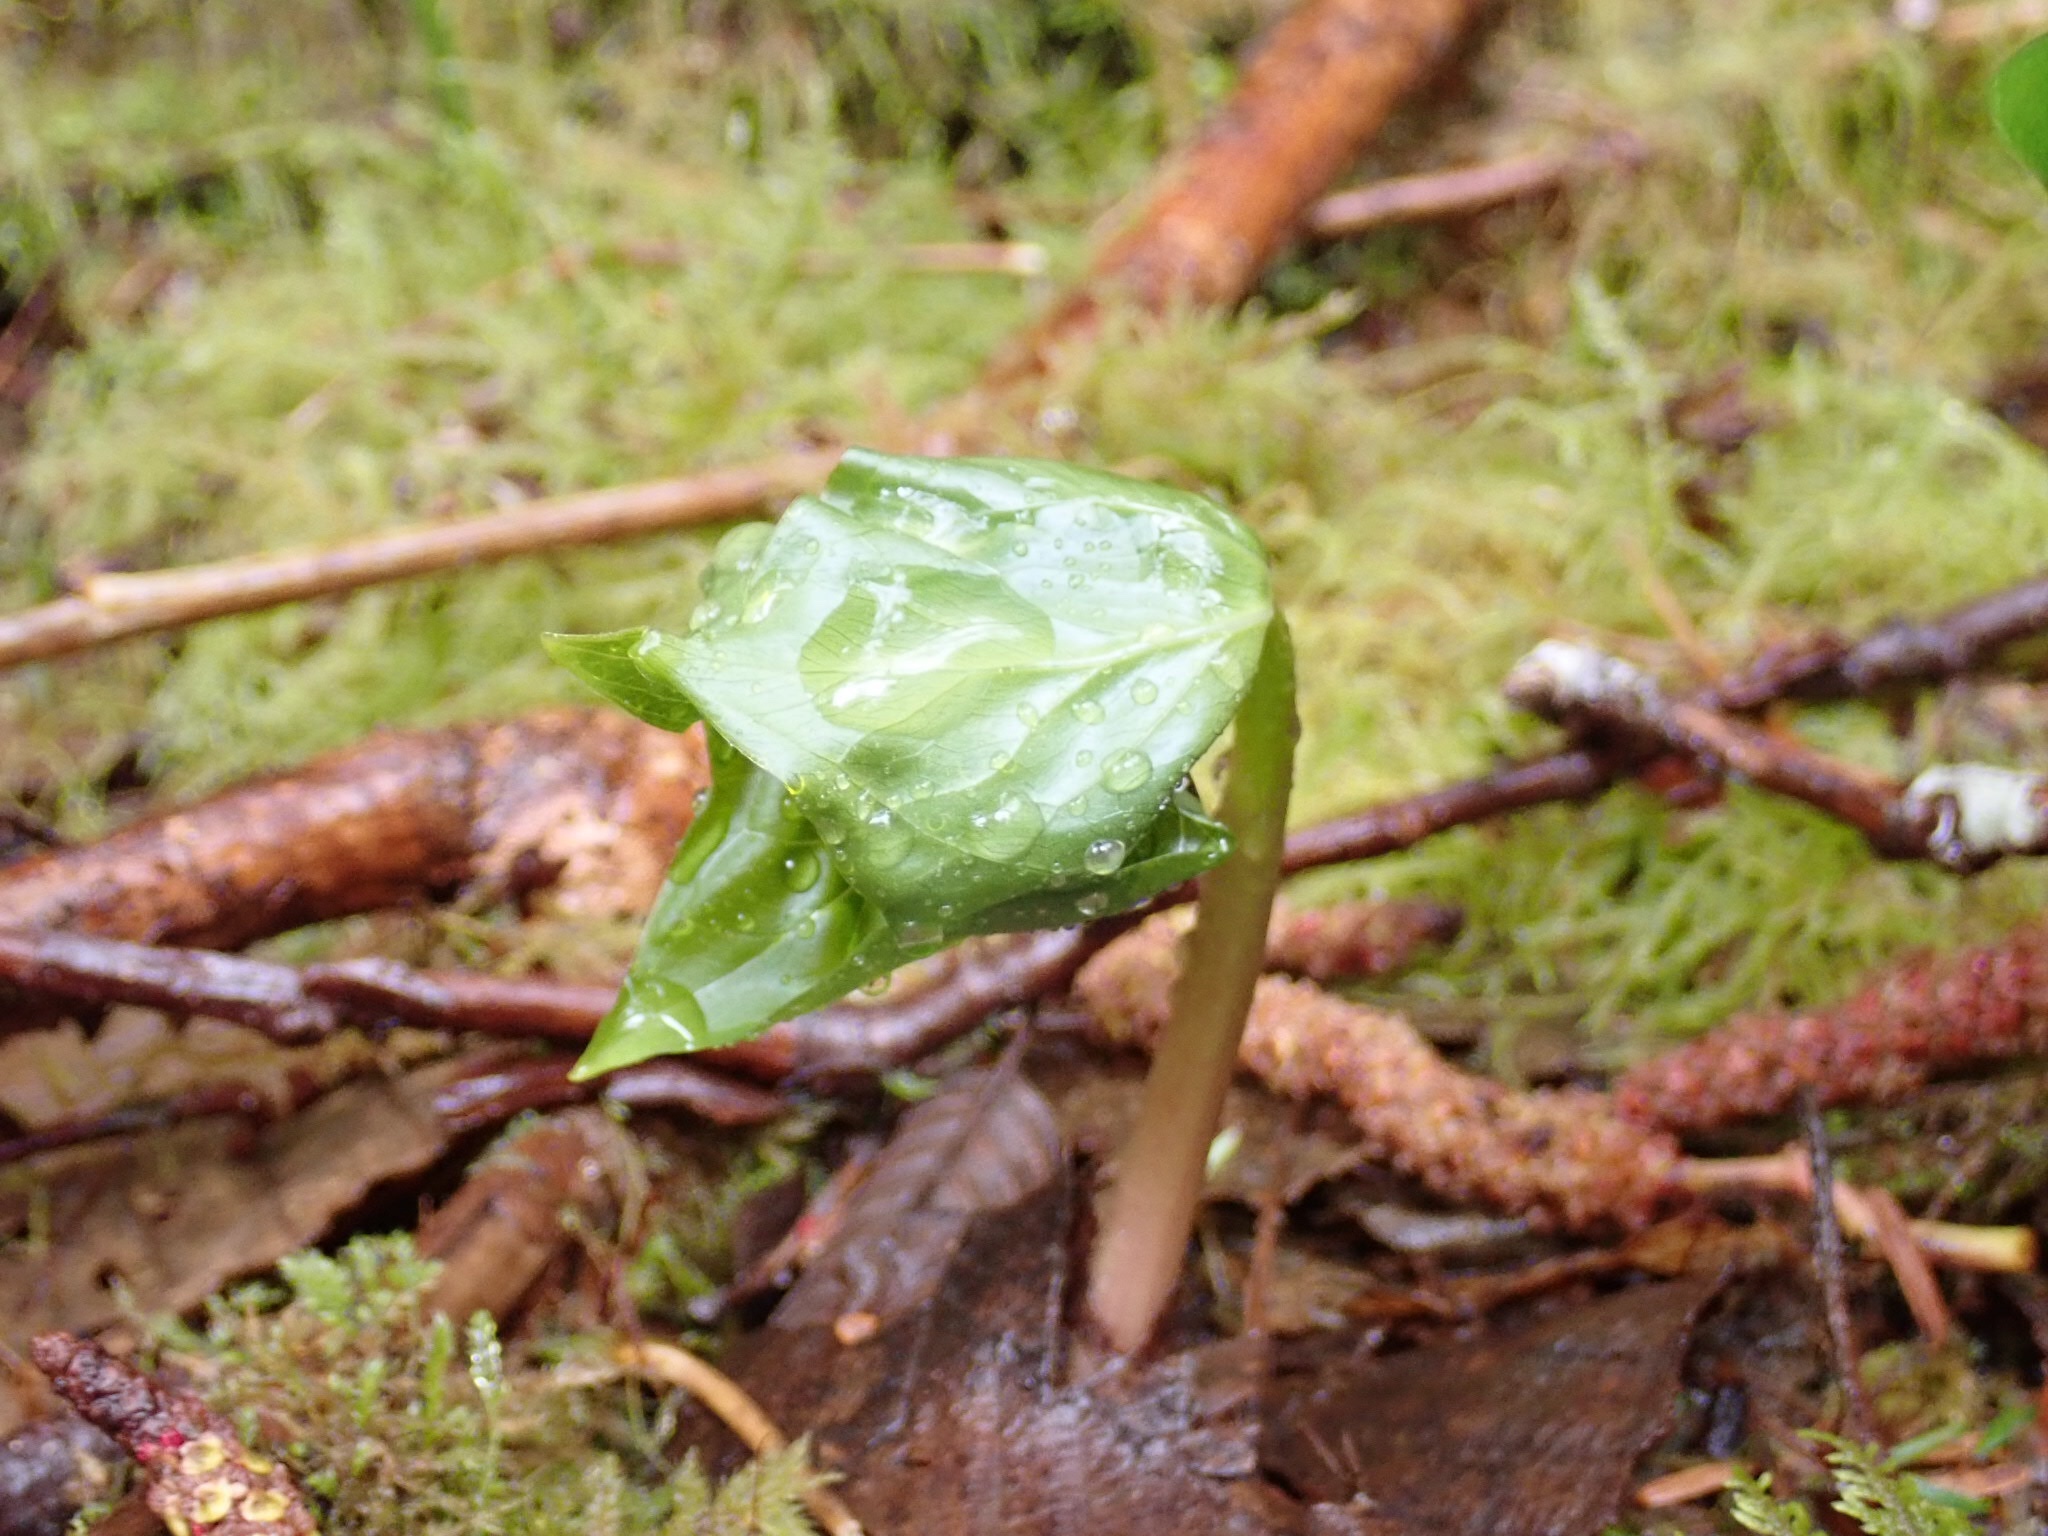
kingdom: Plantae
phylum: Tracheophyta
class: Liliopsida
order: Liliales
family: Melanthiaceae
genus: Trillium
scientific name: Trillium ovatum
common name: Pacific trillium
